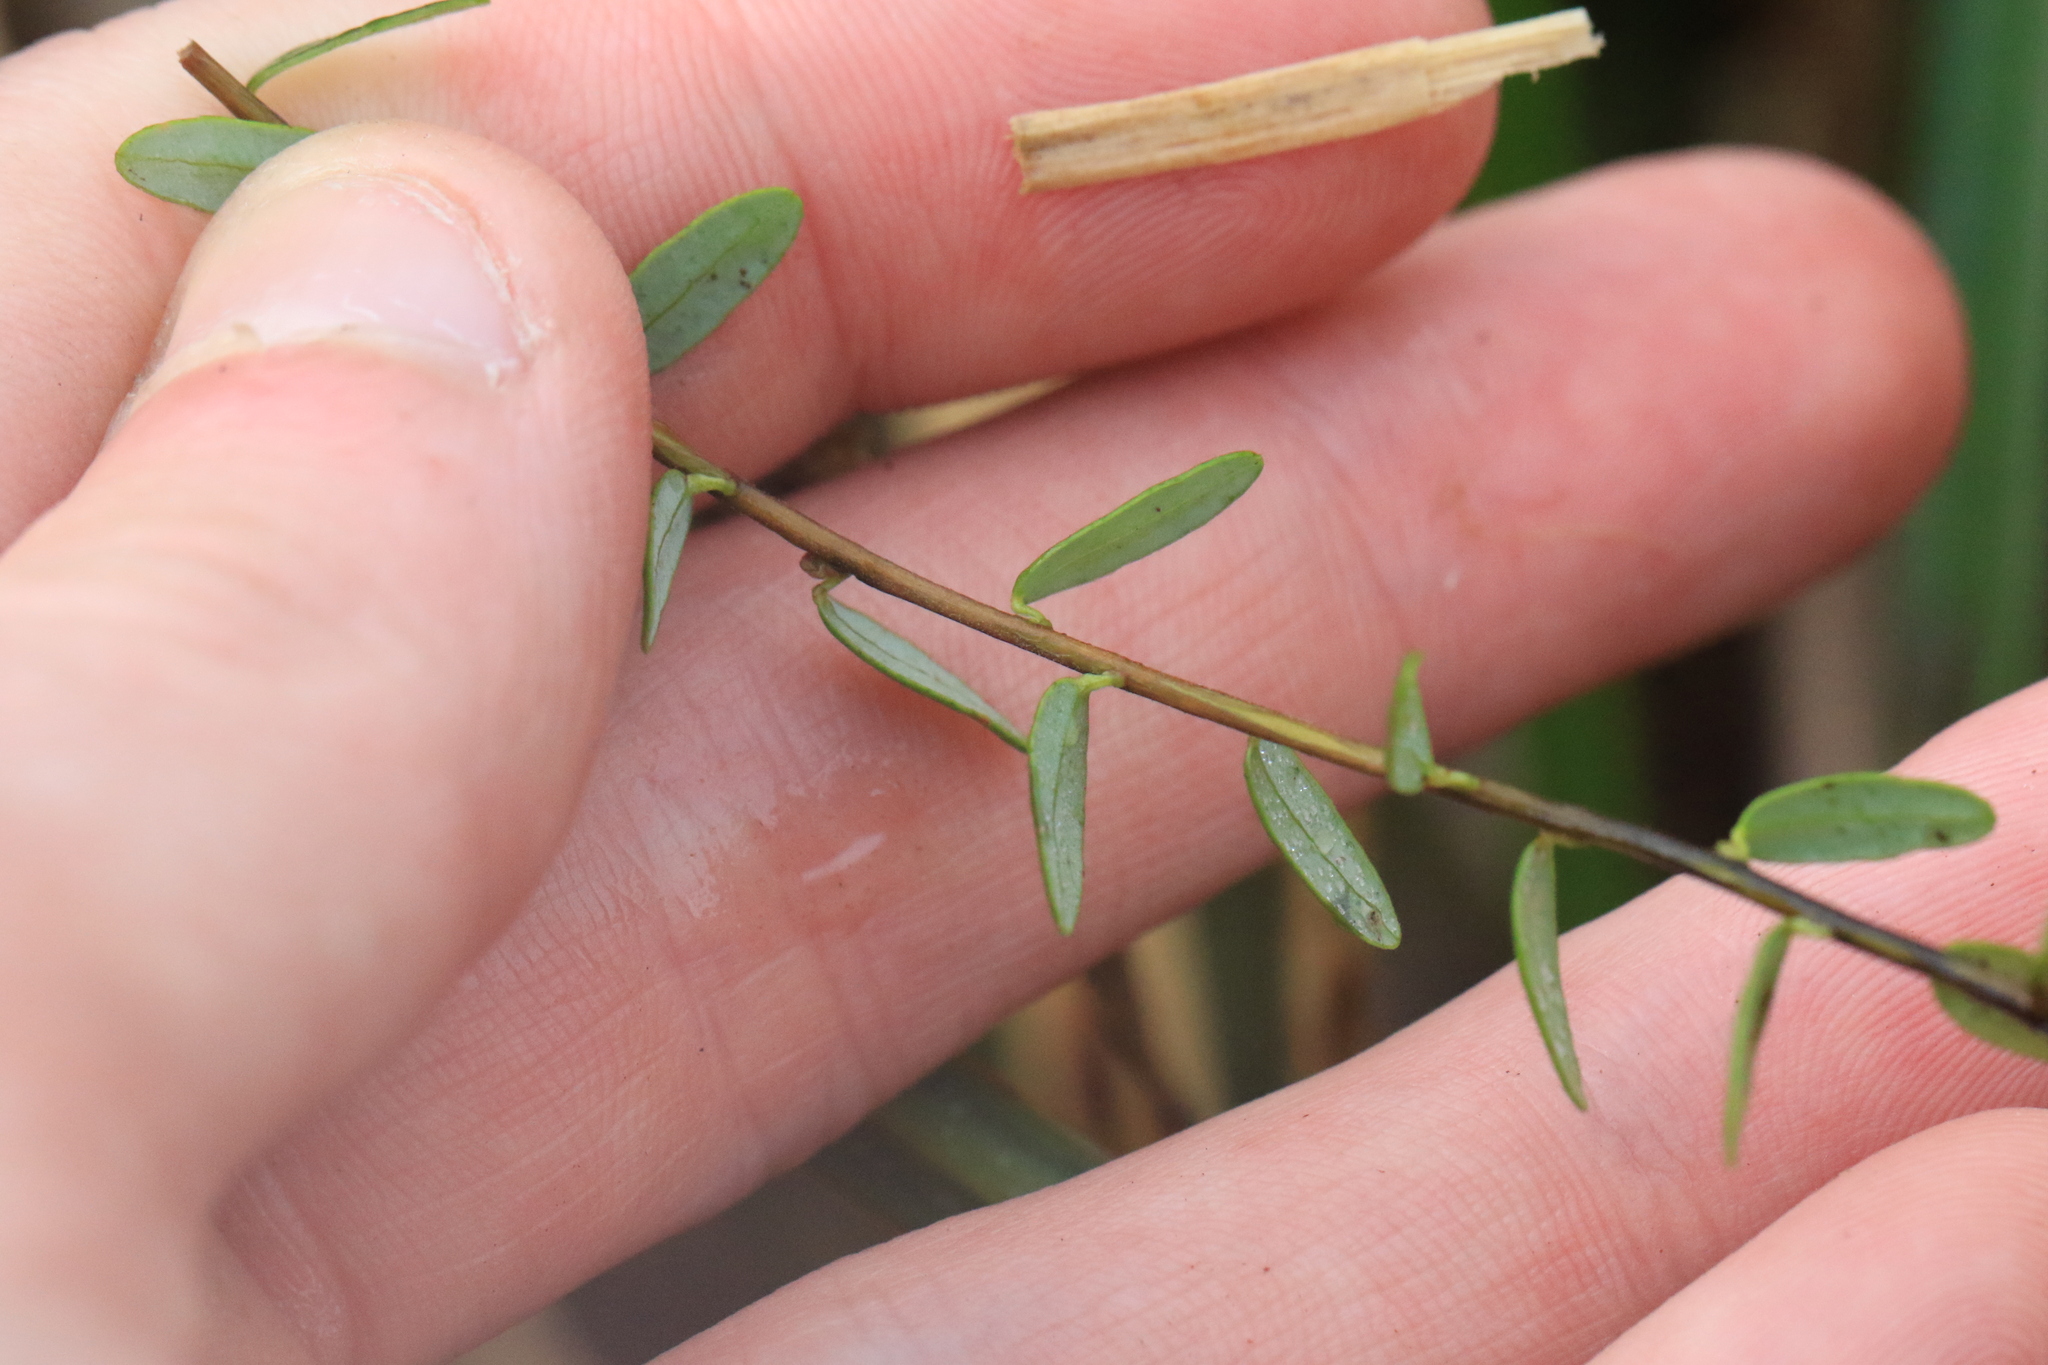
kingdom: Plantae
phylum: Tracheophyta
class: Magnoliopsida
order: Ericales
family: Ericaceae
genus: Vaccinium
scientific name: Vaccinium macrocarpon
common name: American cranberry
